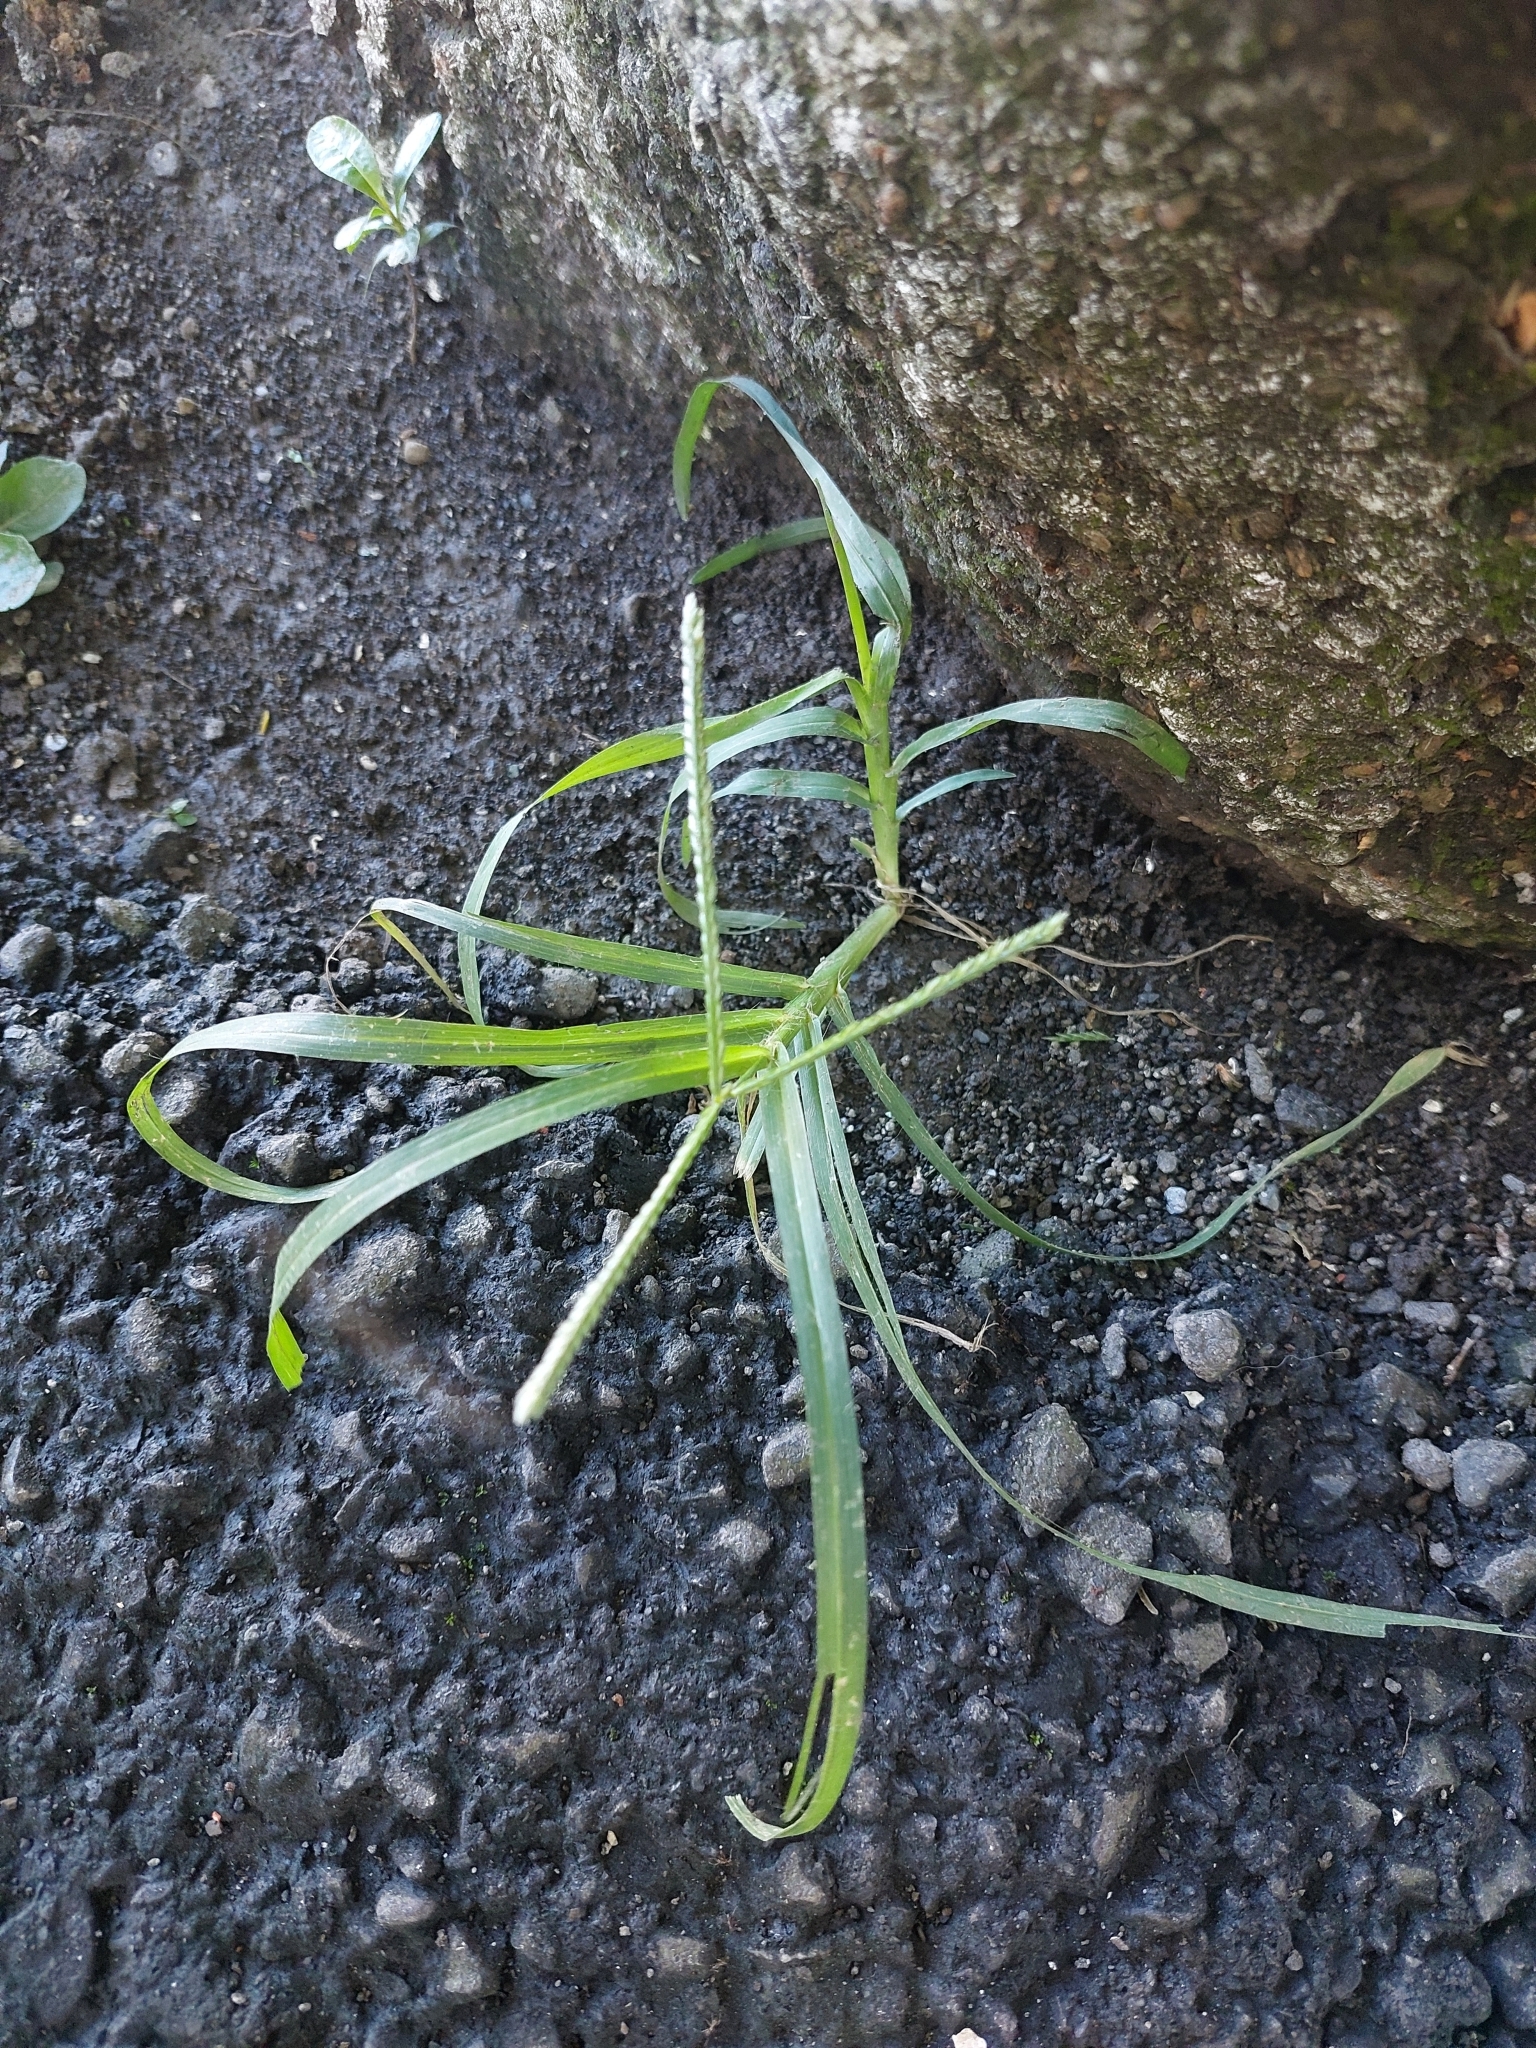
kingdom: Plantae
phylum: Tracheophyta
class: Liliopsida
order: Poales
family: Poaceae
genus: Eleusine
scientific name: Eleusine indica
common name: Yard-grass
